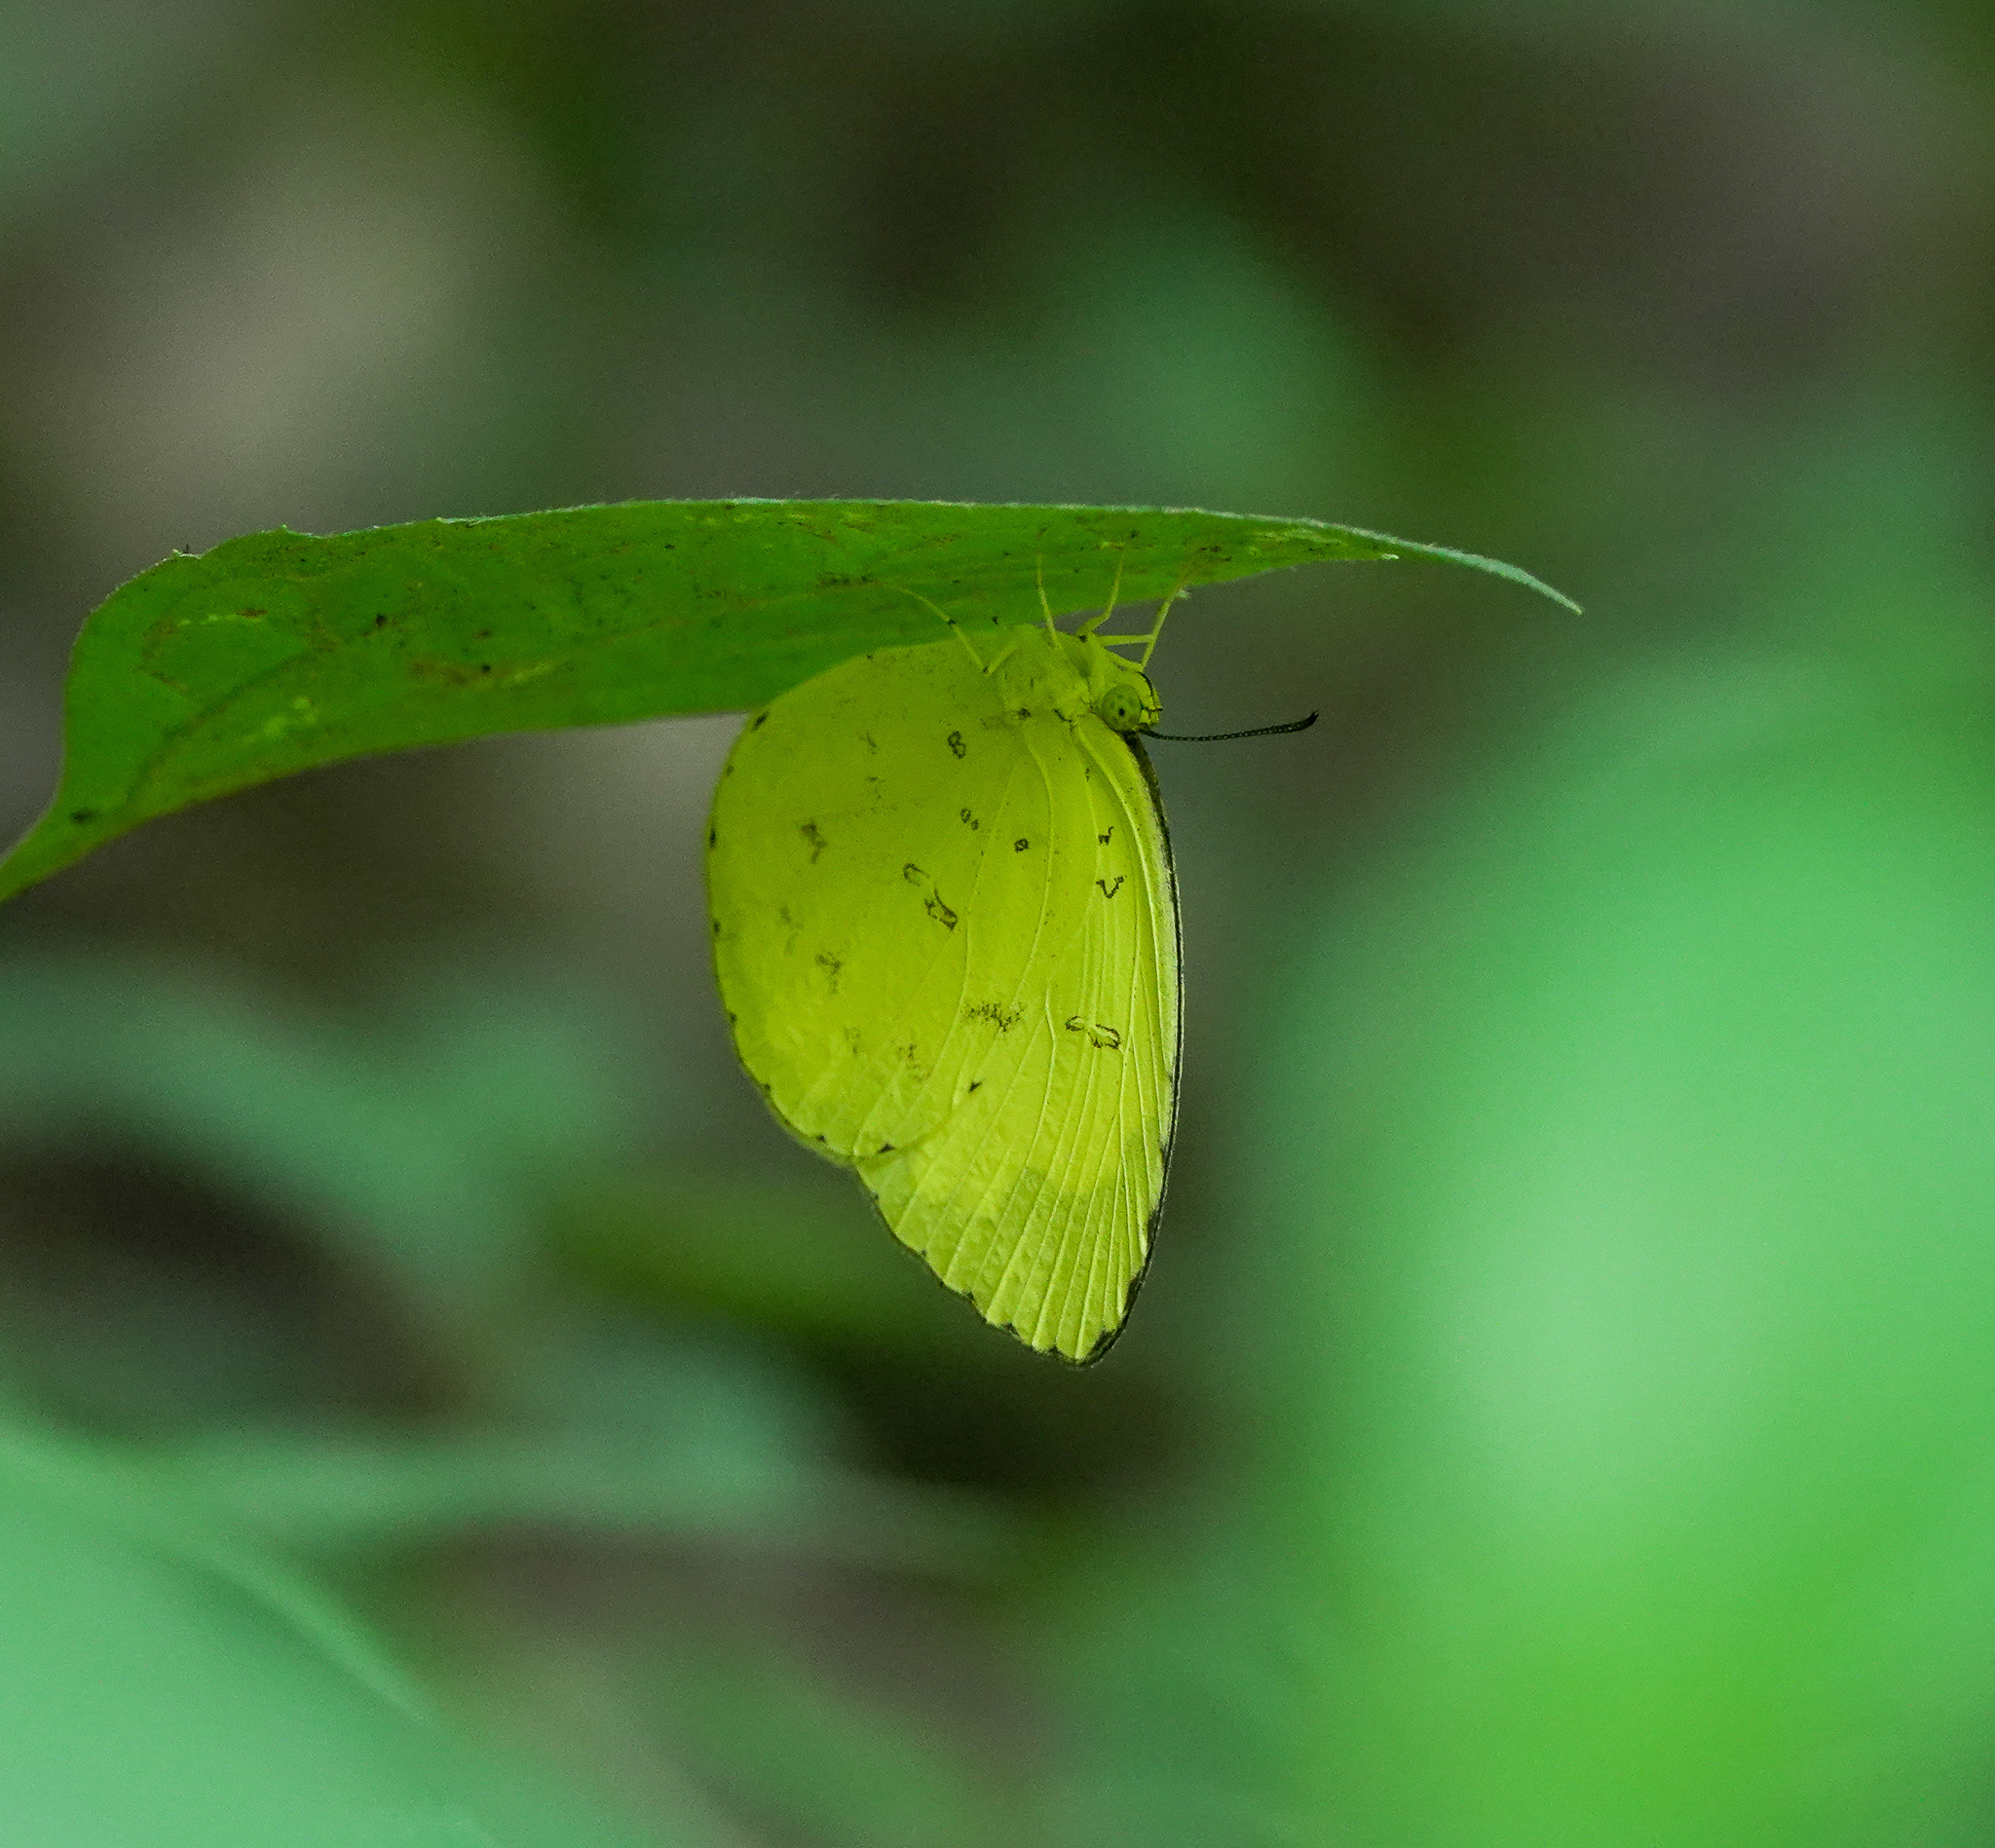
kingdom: Animalia
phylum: Arthropoda
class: Insecta
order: Lepidoptera
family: Pieridae
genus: Eurema
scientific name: Eurema hecabe
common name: Pale grass yellow
